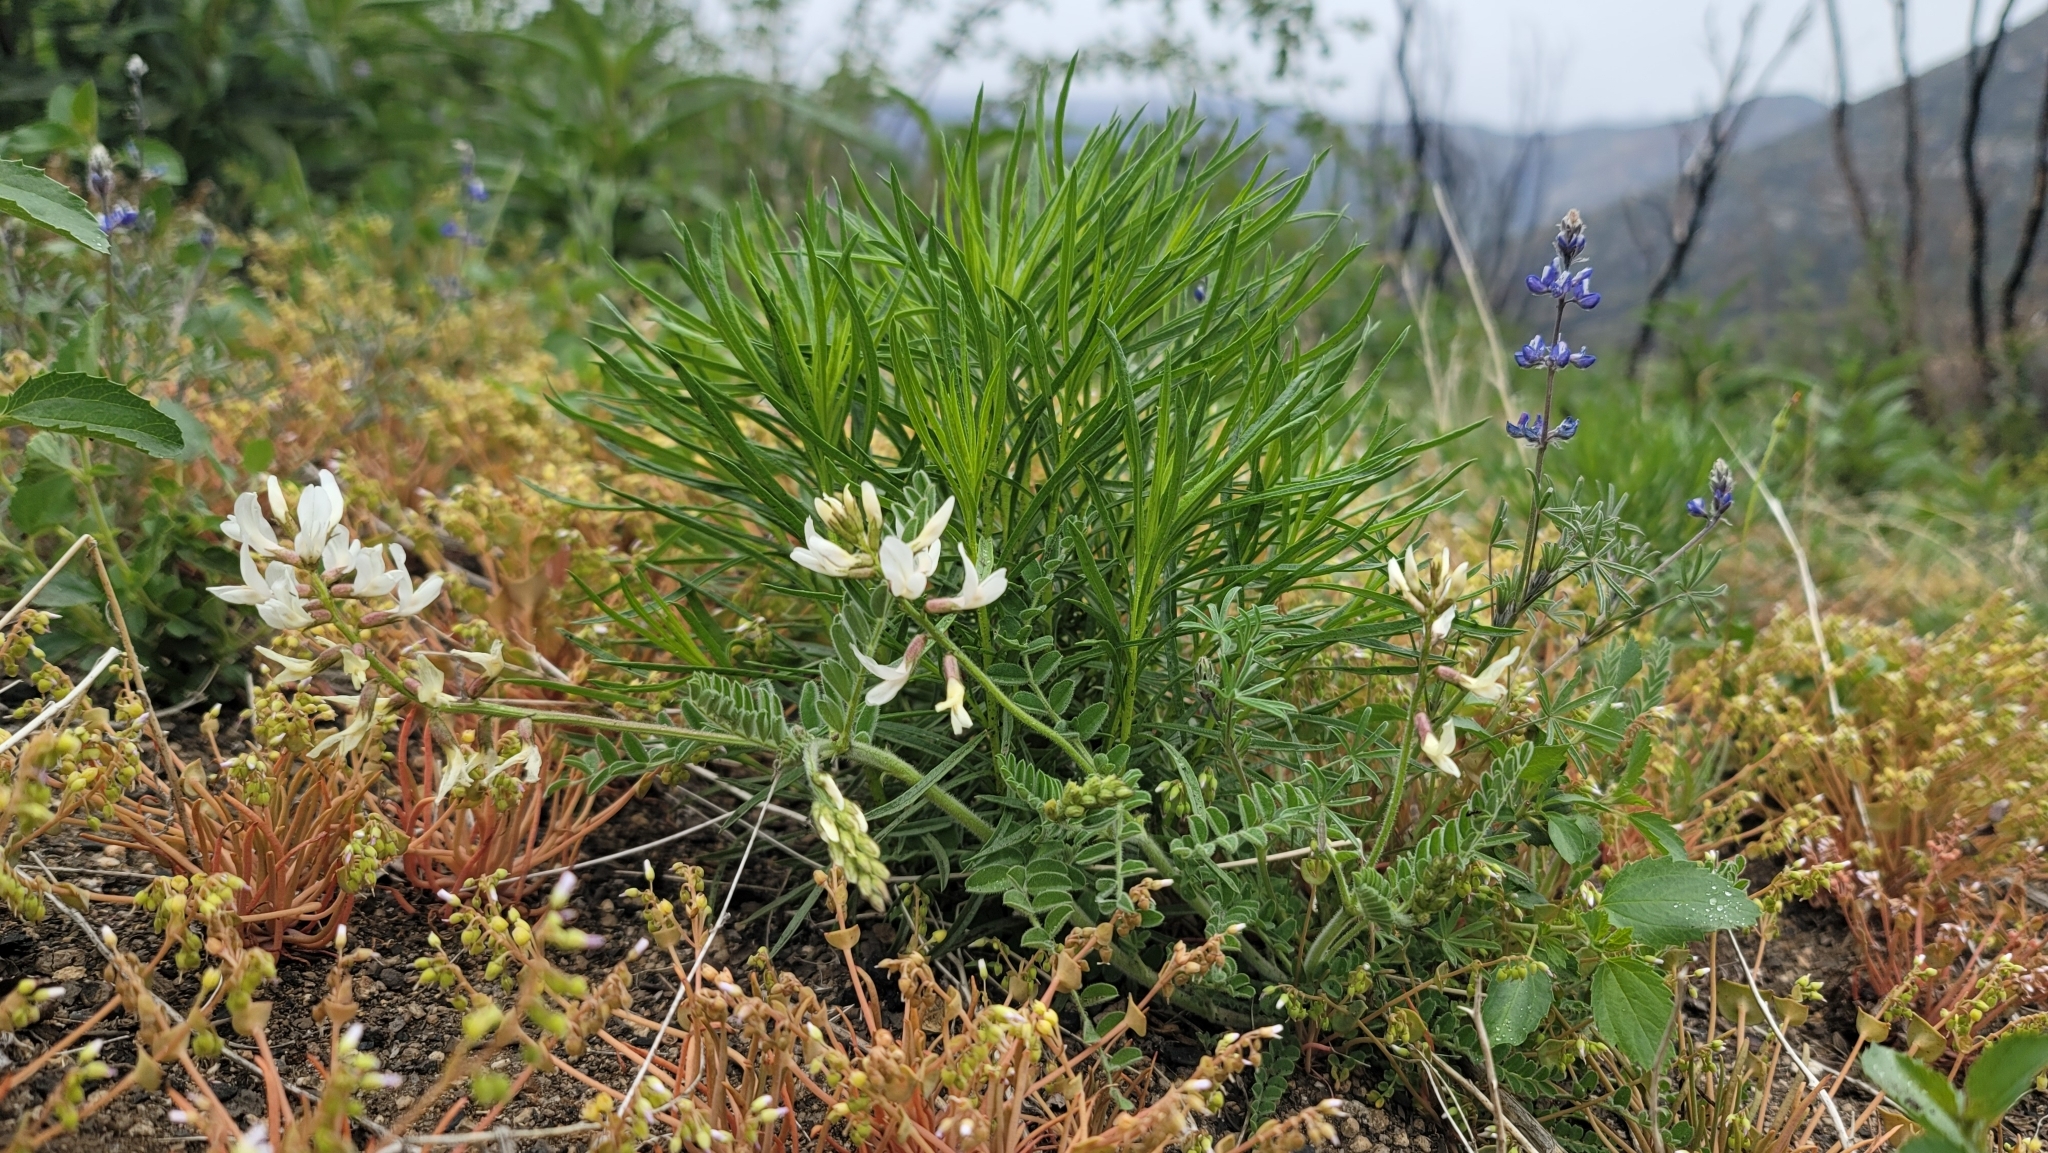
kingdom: Plantae
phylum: Tracheophyta
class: Magnoliopsida
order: Fabales
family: Fabaceae
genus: Astragalus
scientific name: Astragalus congdonii
